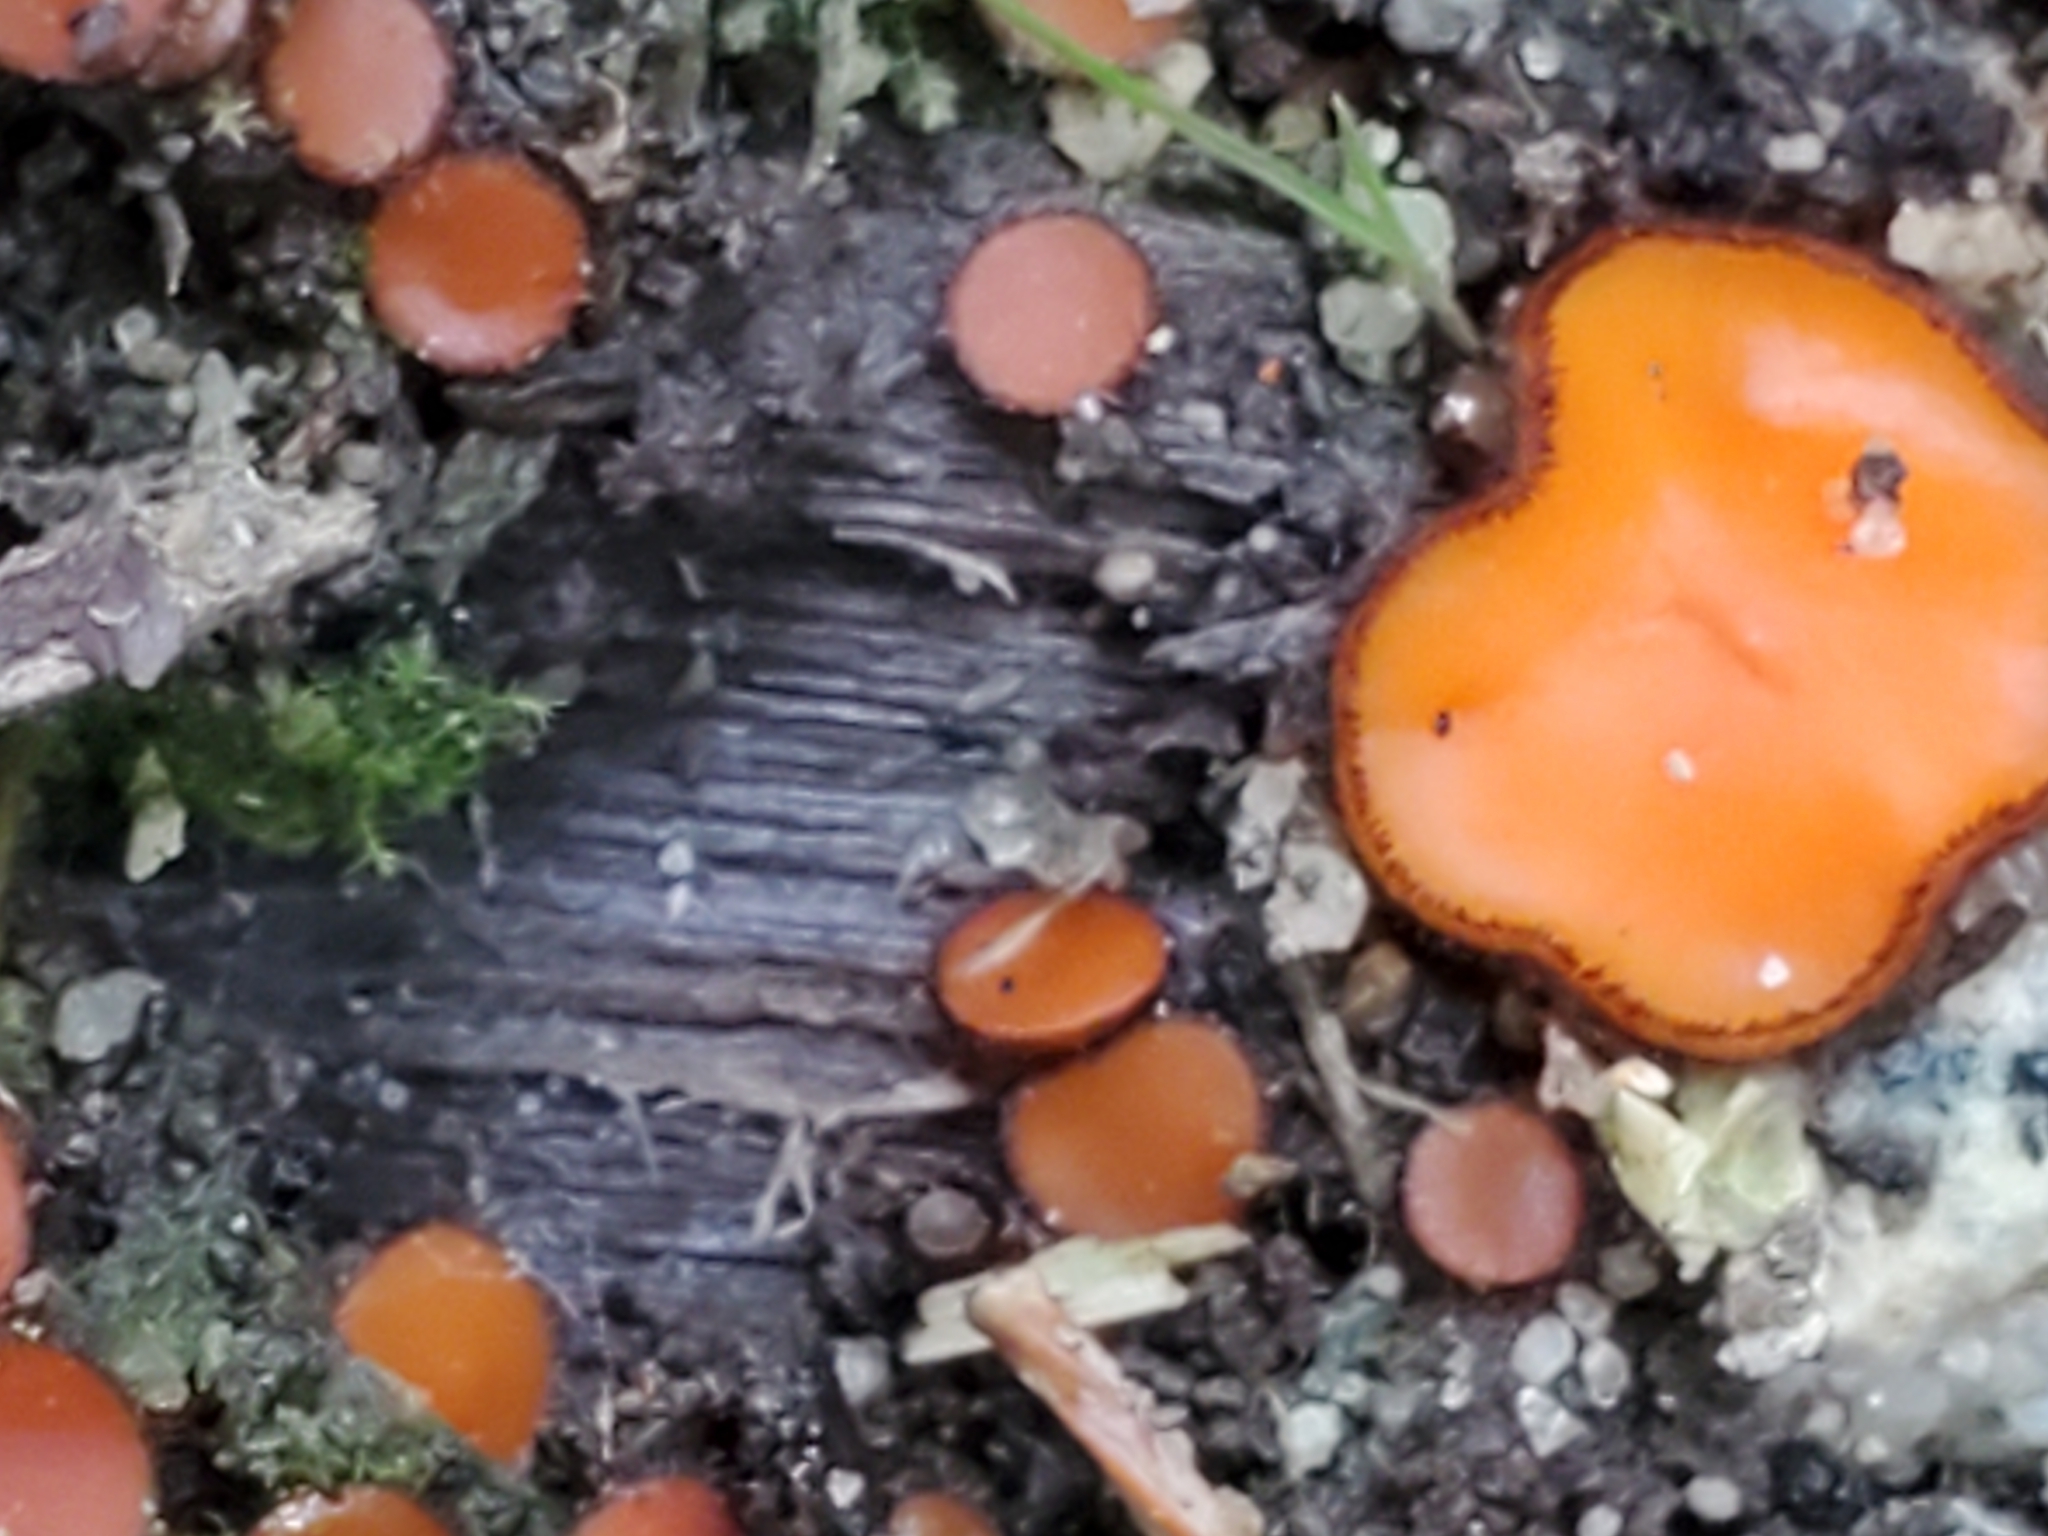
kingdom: Fungi
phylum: Ascomycota
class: Pezizomycetes
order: Pezizales
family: Pyronemataceae
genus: Anthracobia
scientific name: Anthracobia melaloma
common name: Charcoal eyelash
